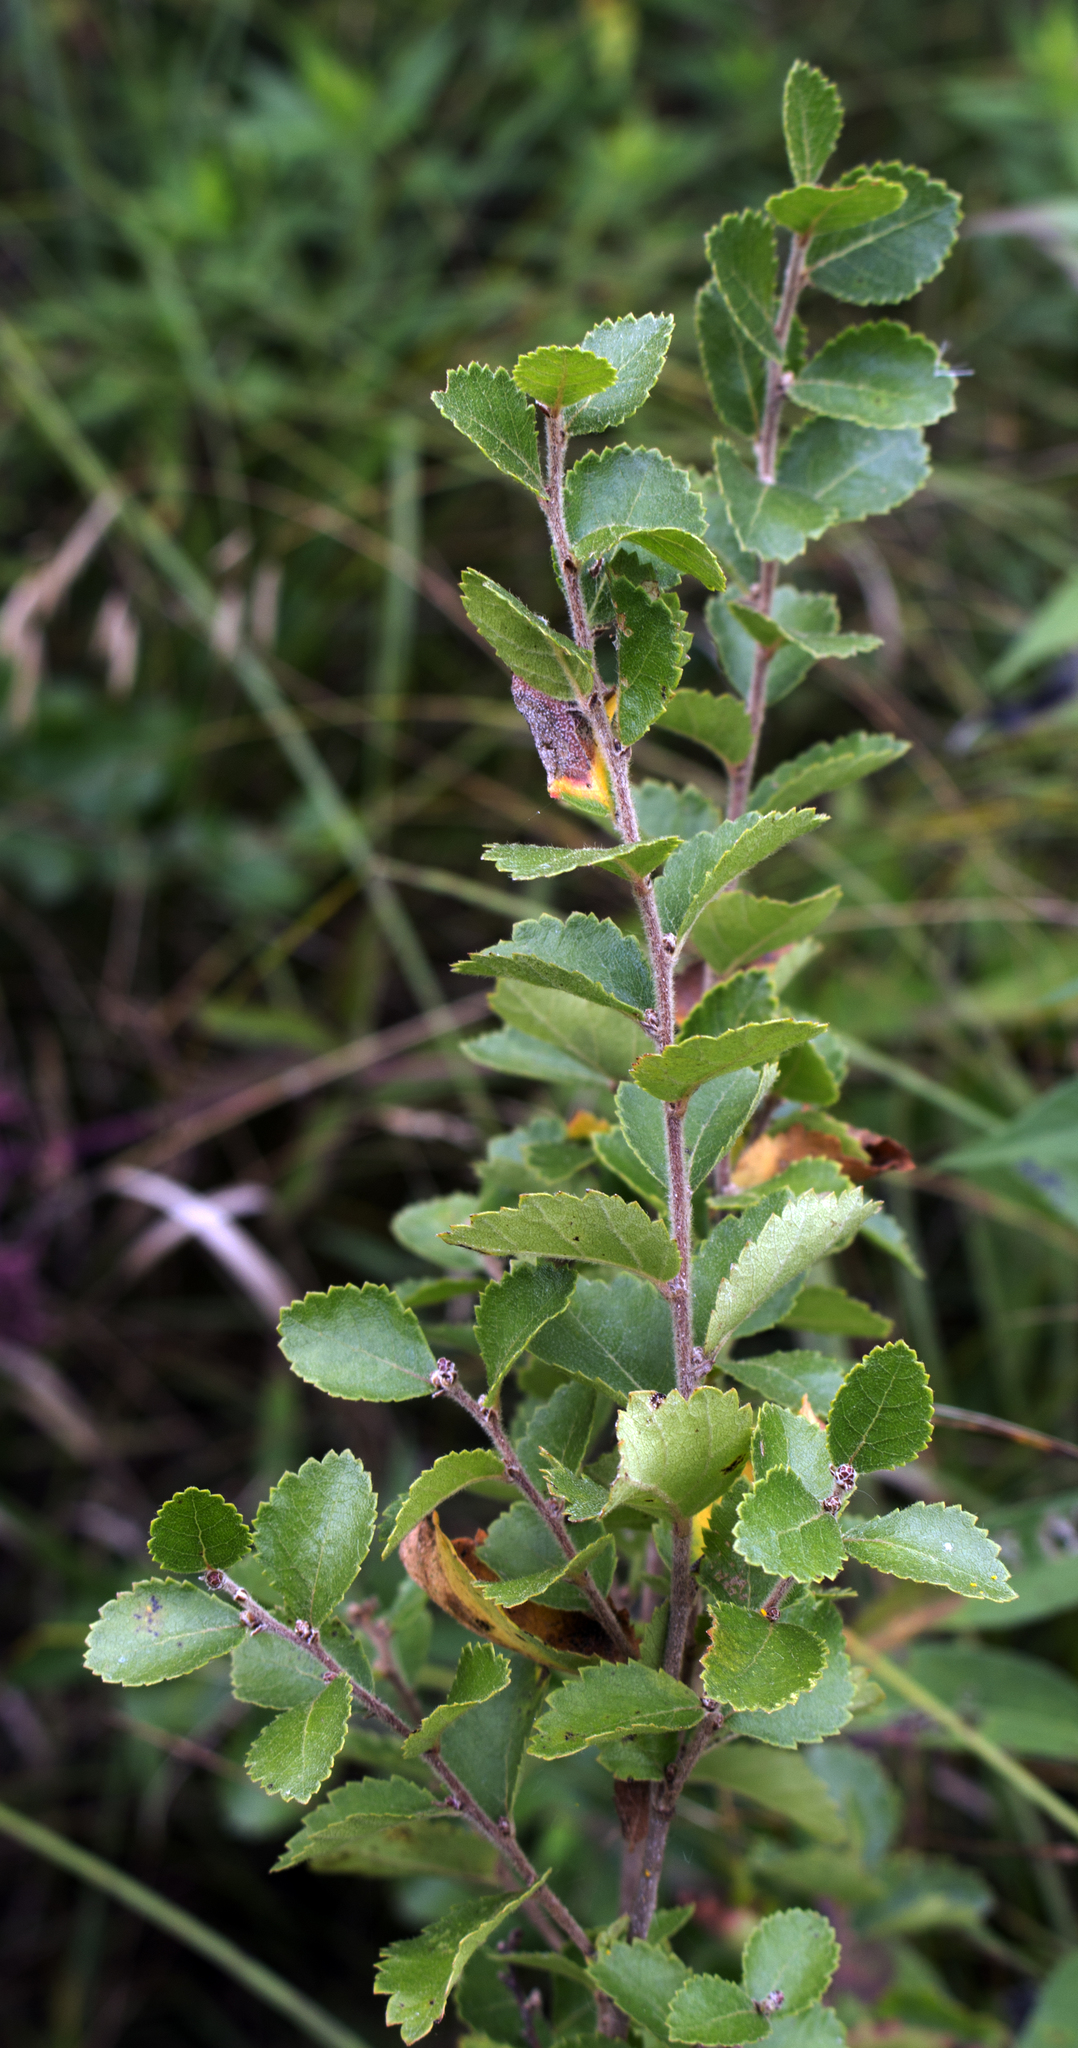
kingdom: Plantae
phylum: Tracheophyta
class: Magnoliopsida
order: Fagales
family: Betulaceae
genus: Betula
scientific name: Betula pumila
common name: Bog birch
